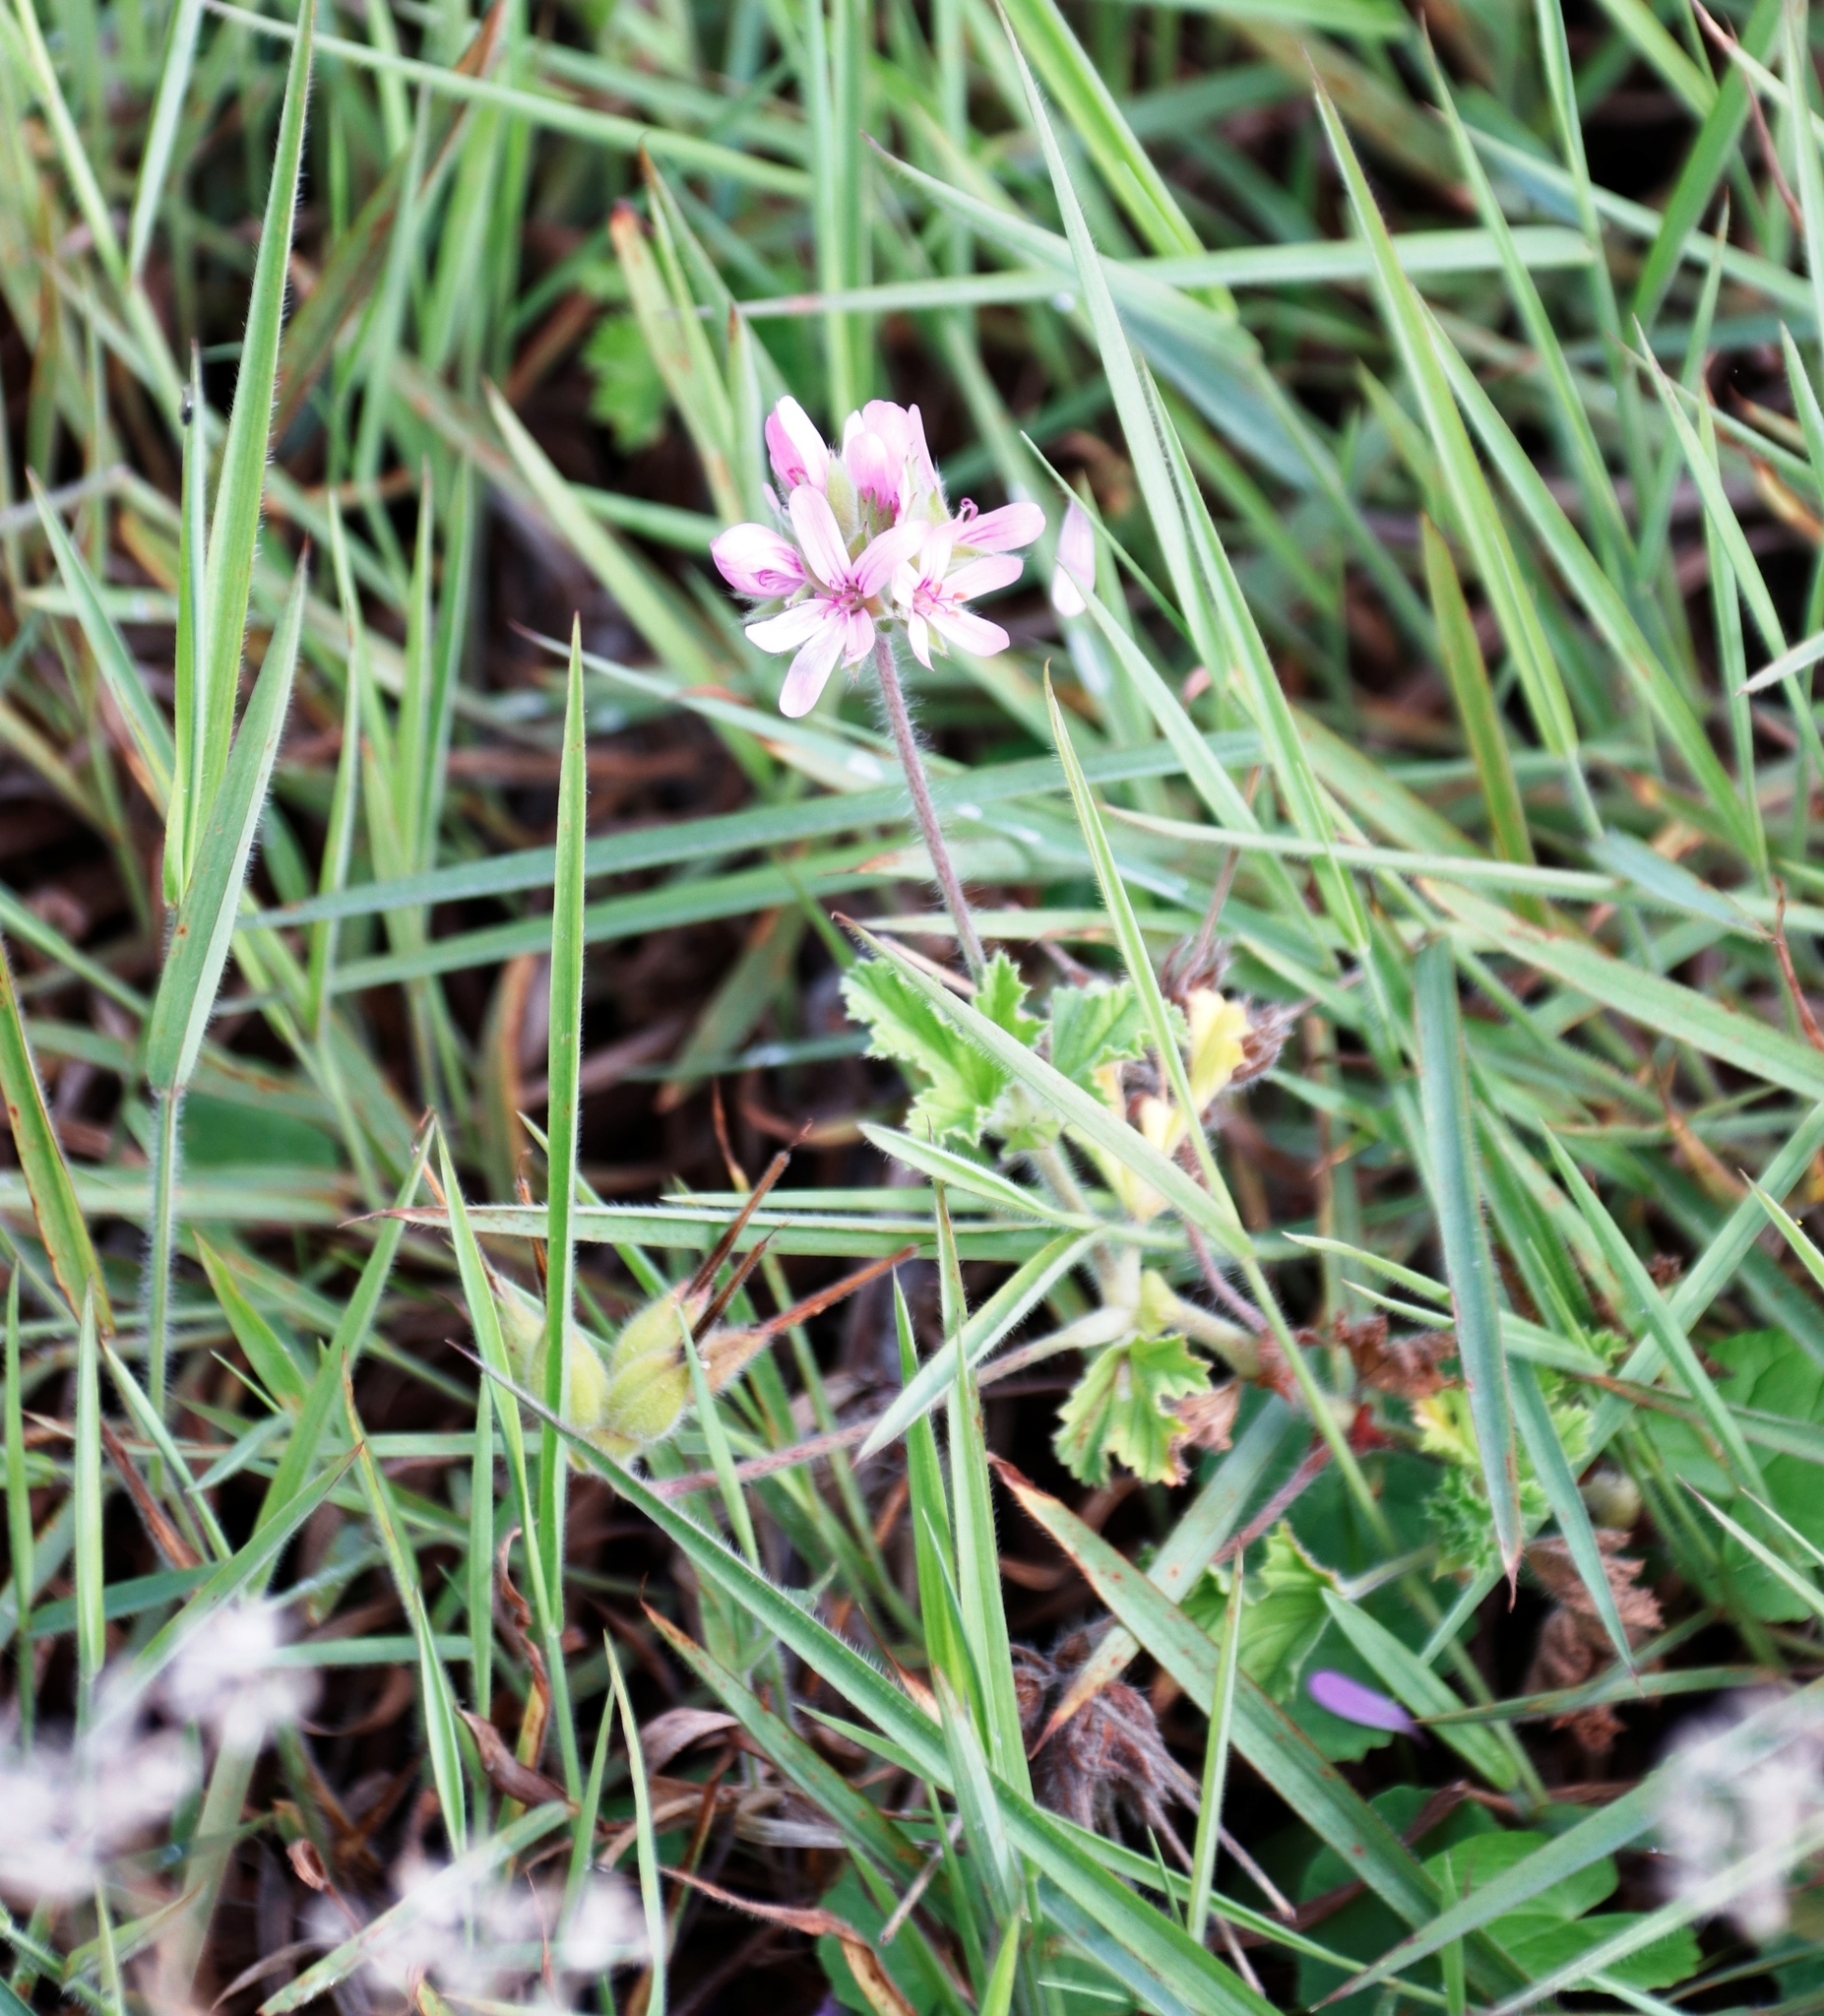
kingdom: Plantae
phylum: Tracheophyta
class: Magnoliopsida
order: Geraniales
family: Geraniaceae
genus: Pelargonium
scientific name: Pelargonium capitatum
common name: Rose scented geranium
